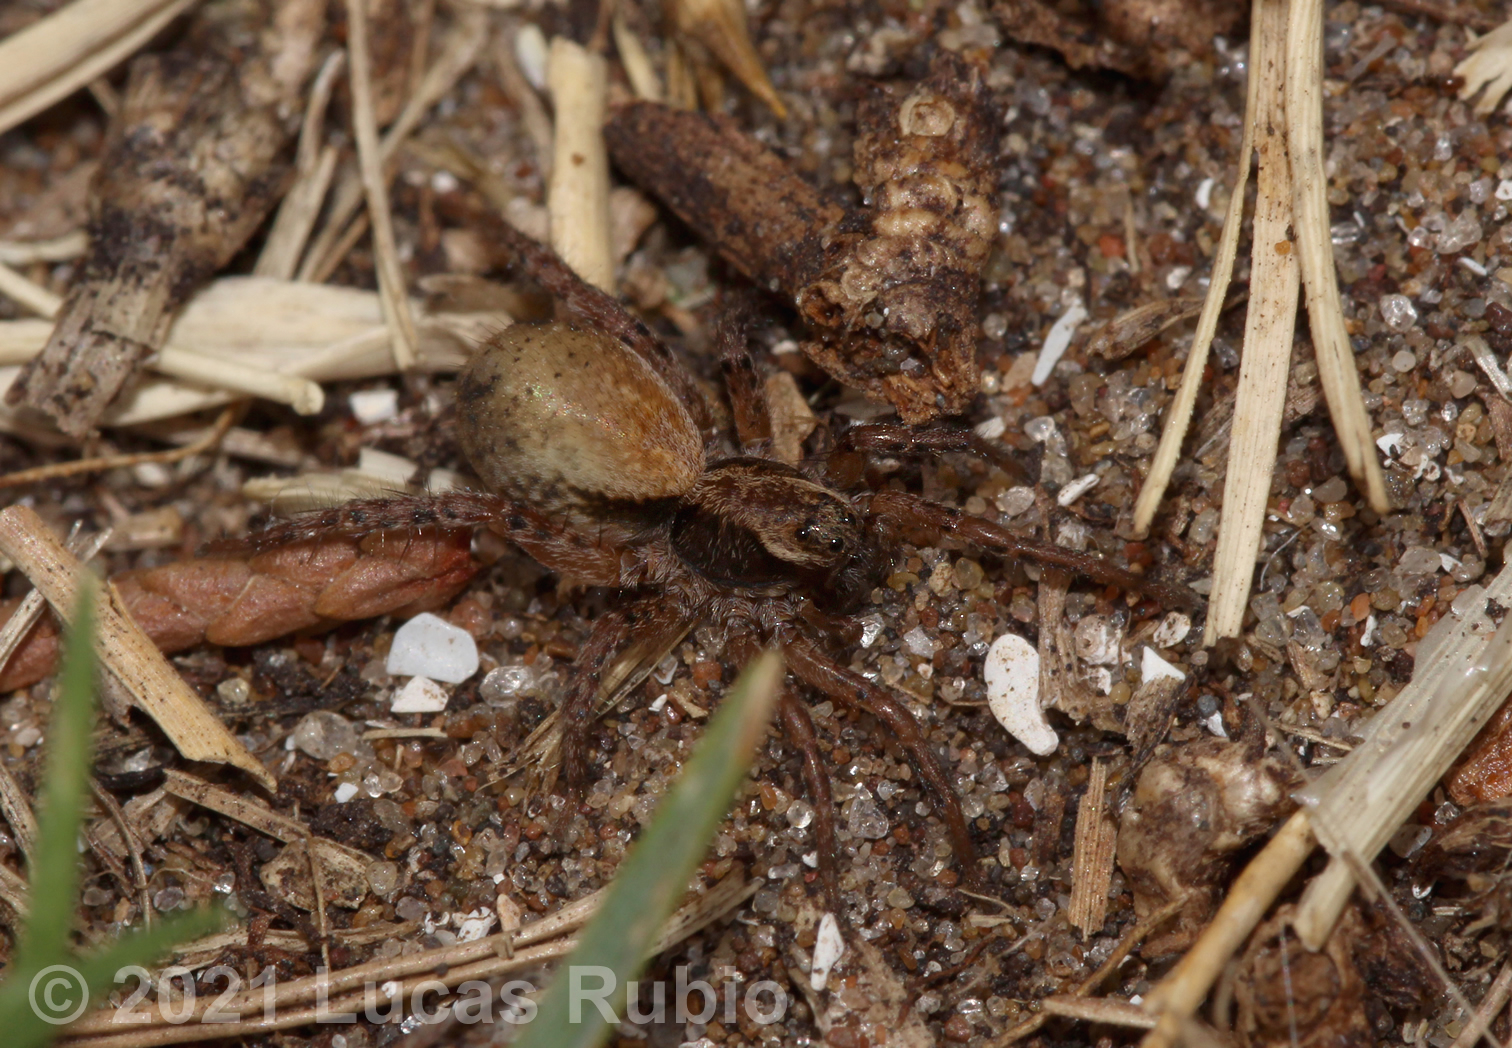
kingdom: Animalia
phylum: Arthropoda
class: Arachnida
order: Araneae
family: Lycosidae
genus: Abaycosa
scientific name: Abaycosa paraguensis
